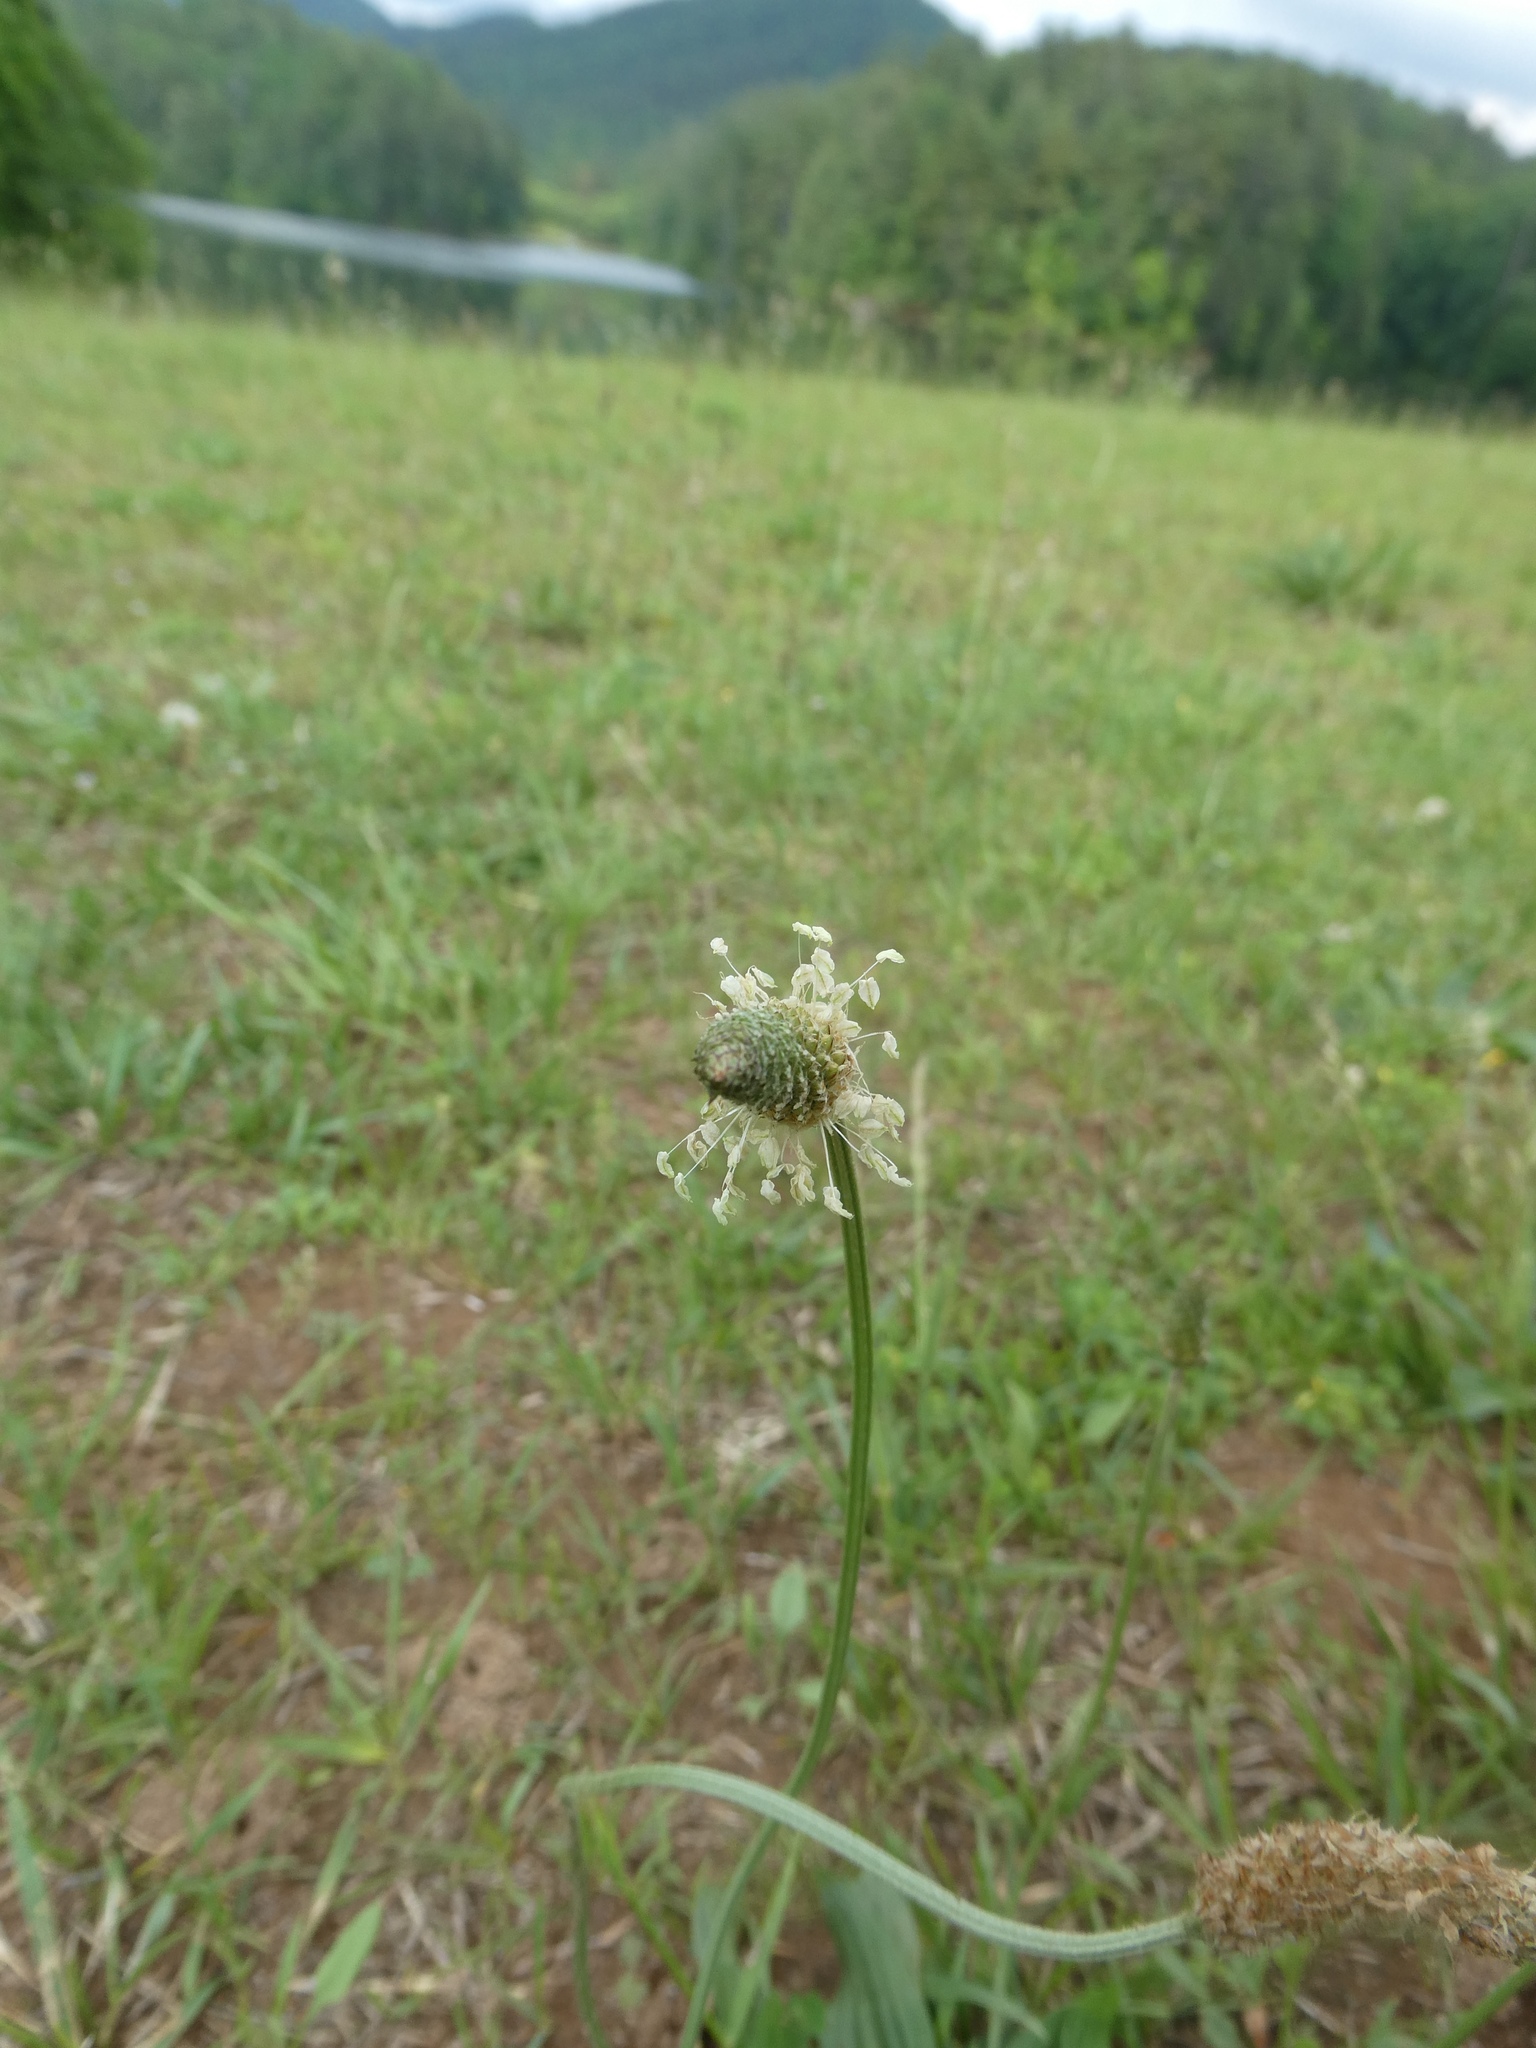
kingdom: Plantae
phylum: Tracheophyta
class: Magnoliopsida
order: Lamiales
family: Plantaginaceae
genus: Plantago
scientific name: Plantago lanceolata
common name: Ribwort plantain
